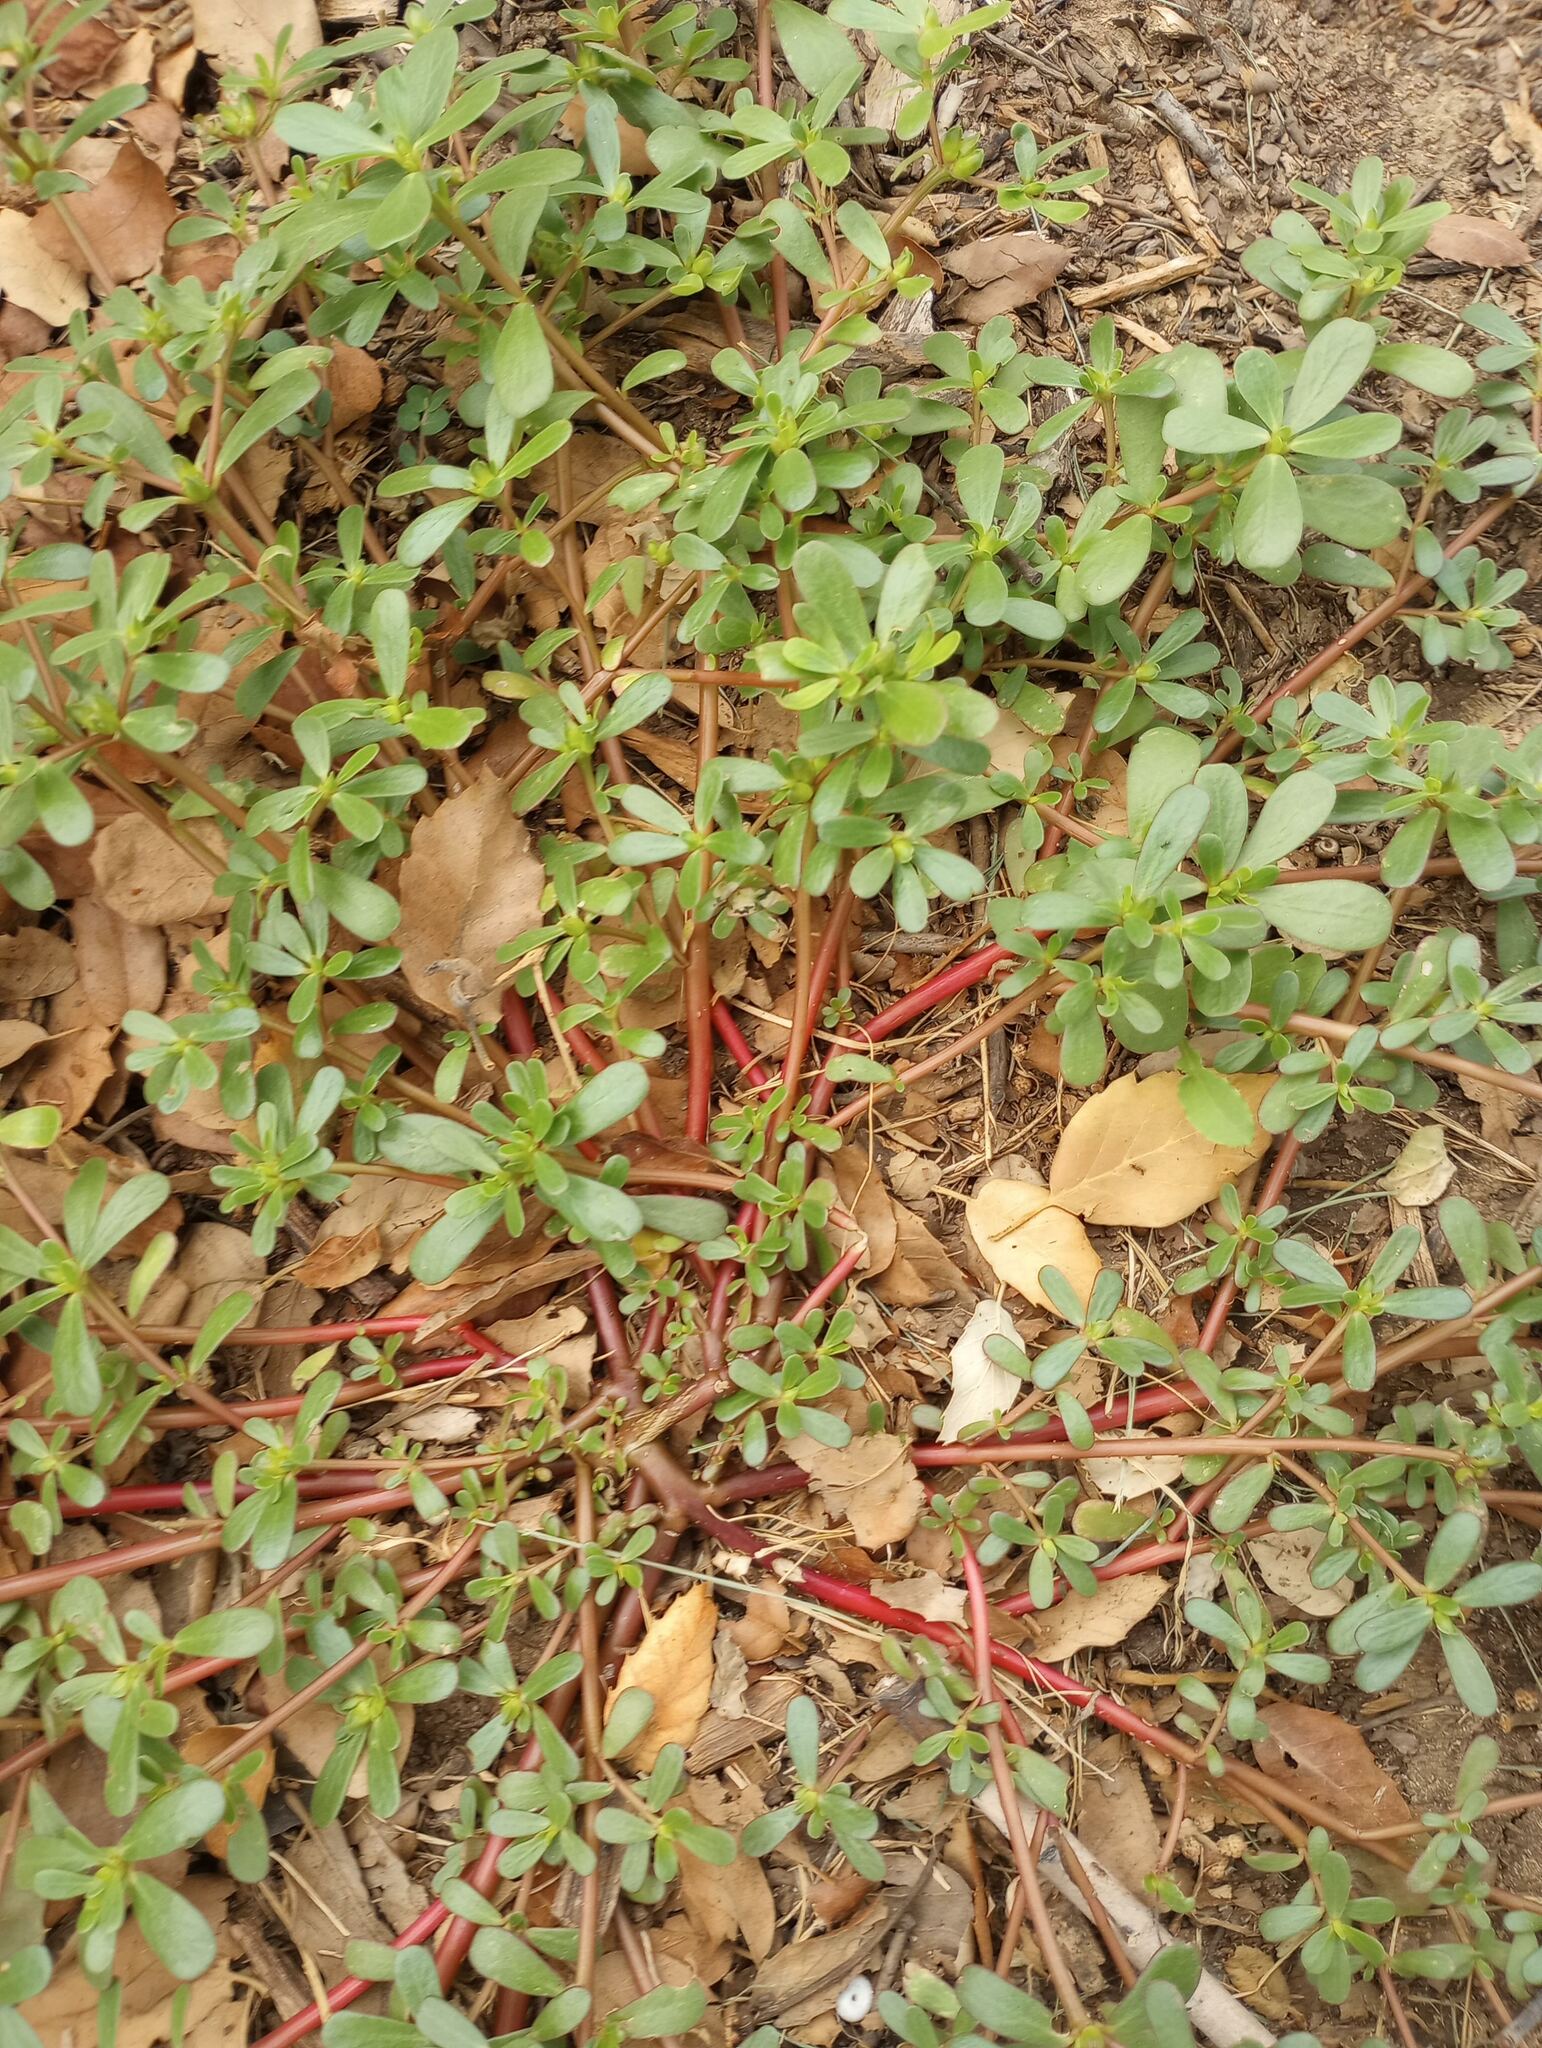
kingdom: Plantae
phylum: Tracheophyta
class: Magnoliopsida
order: Caryophyllales
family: Portulacaceae
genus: Portulaca
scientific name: Portulaca oleracea
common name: Common purslane
